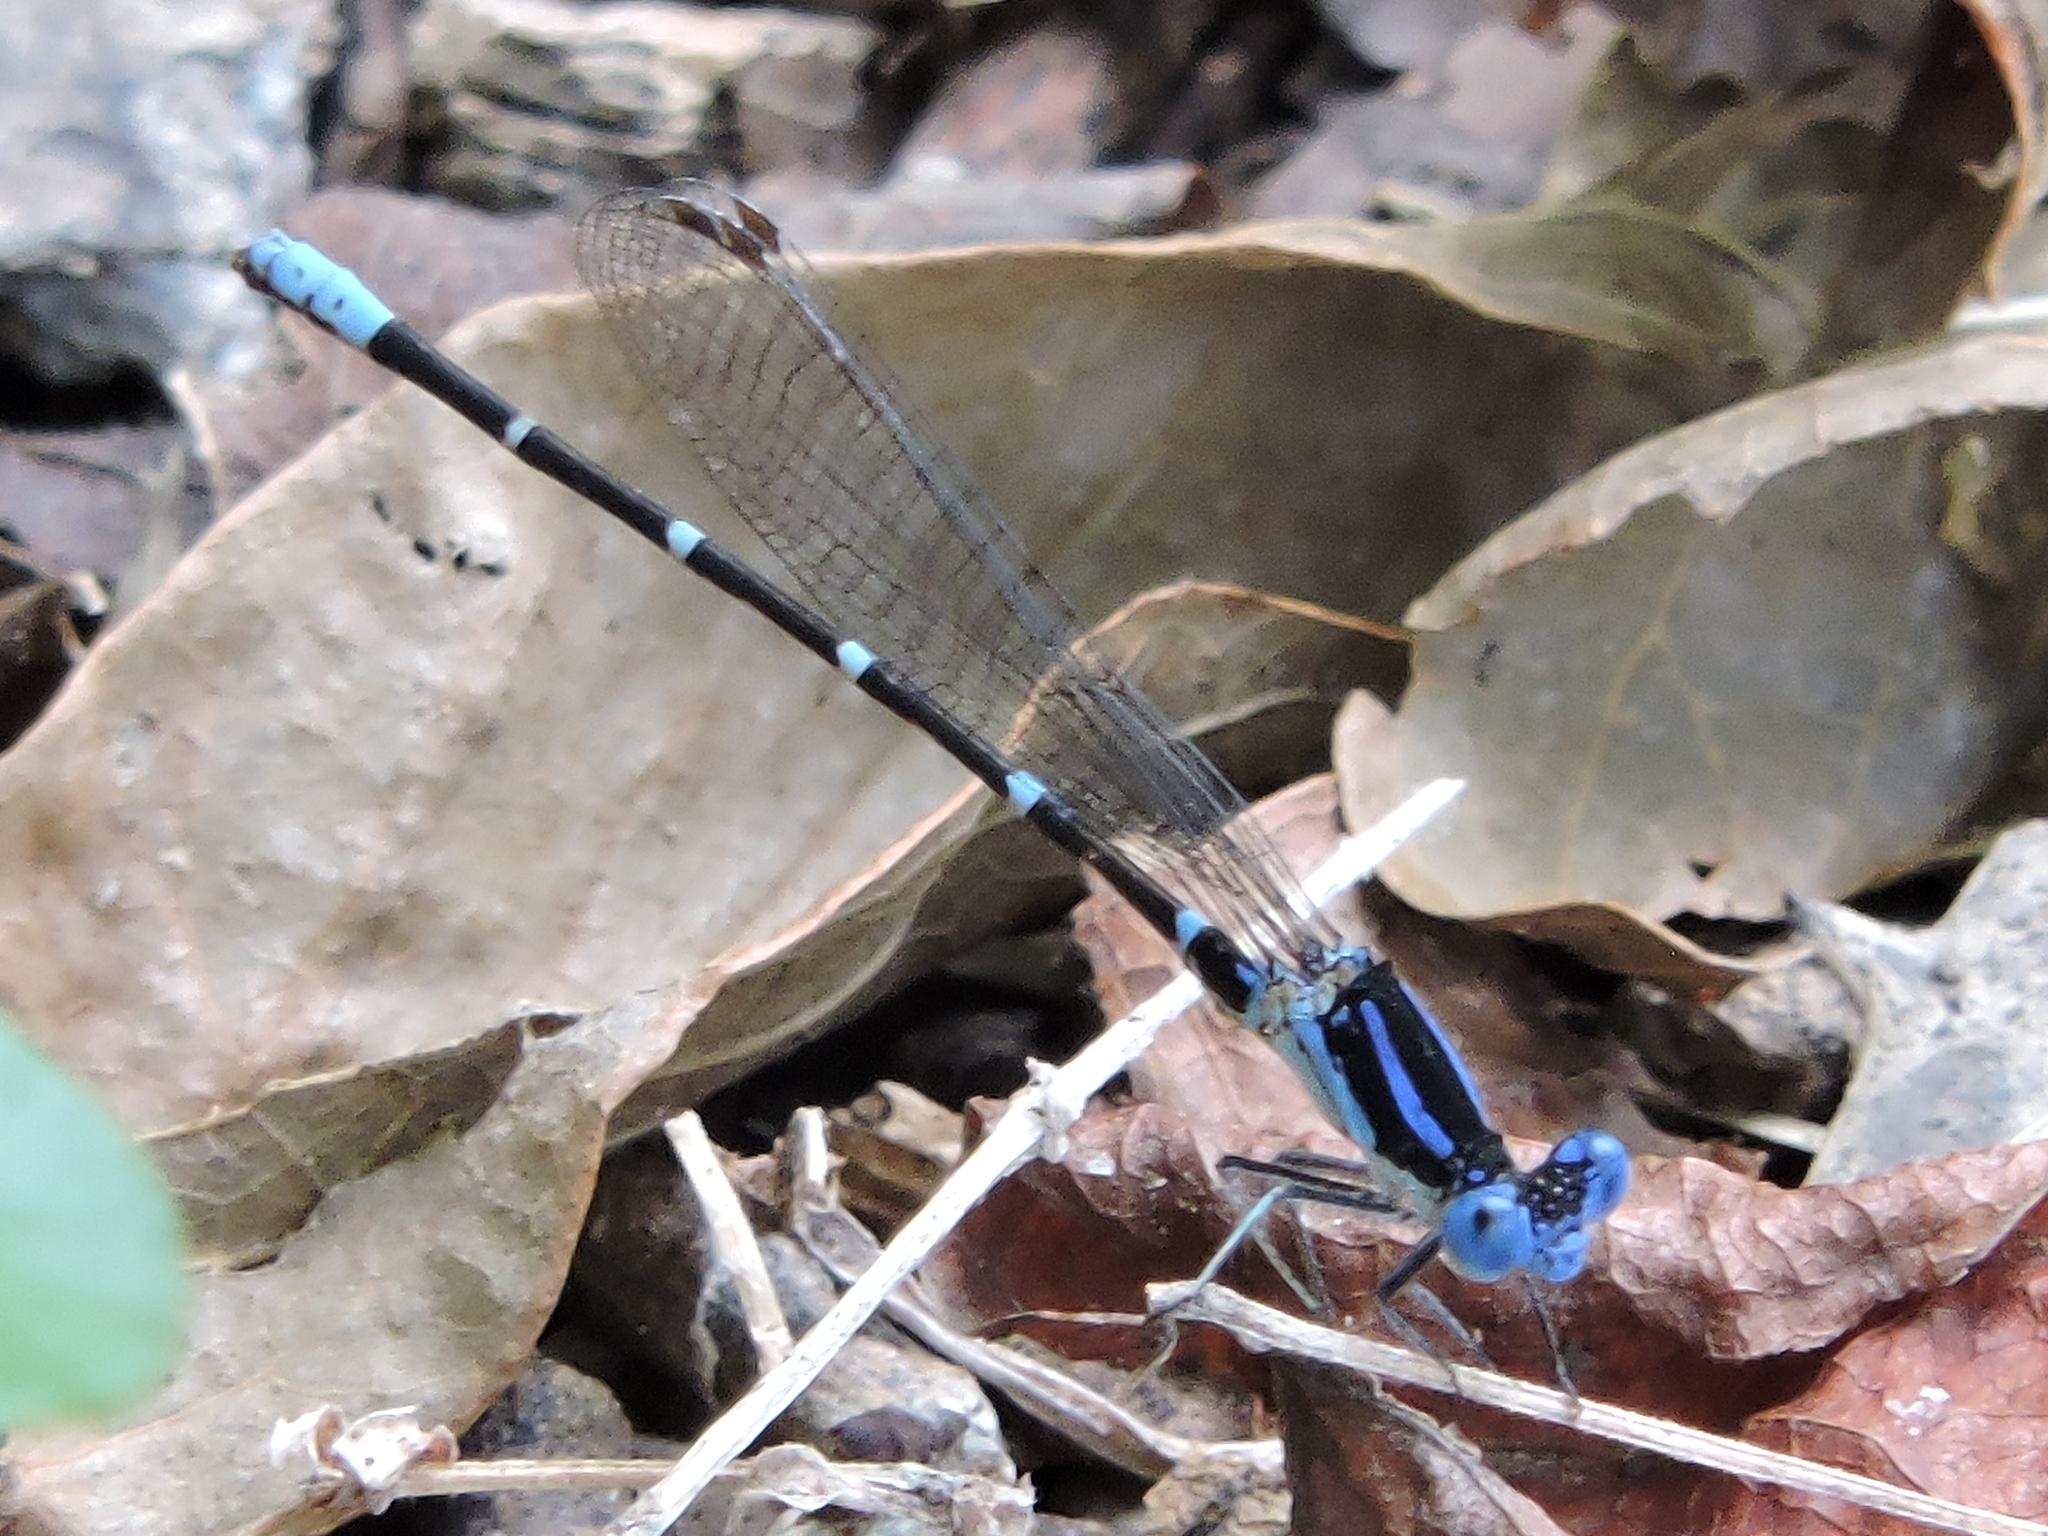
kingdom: Animalia
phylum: Arthropoda
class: Insecta
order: Odonata
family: Coenagrionidae
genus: Argia
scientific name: Argia sedula
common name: Blue-ringed dancer
